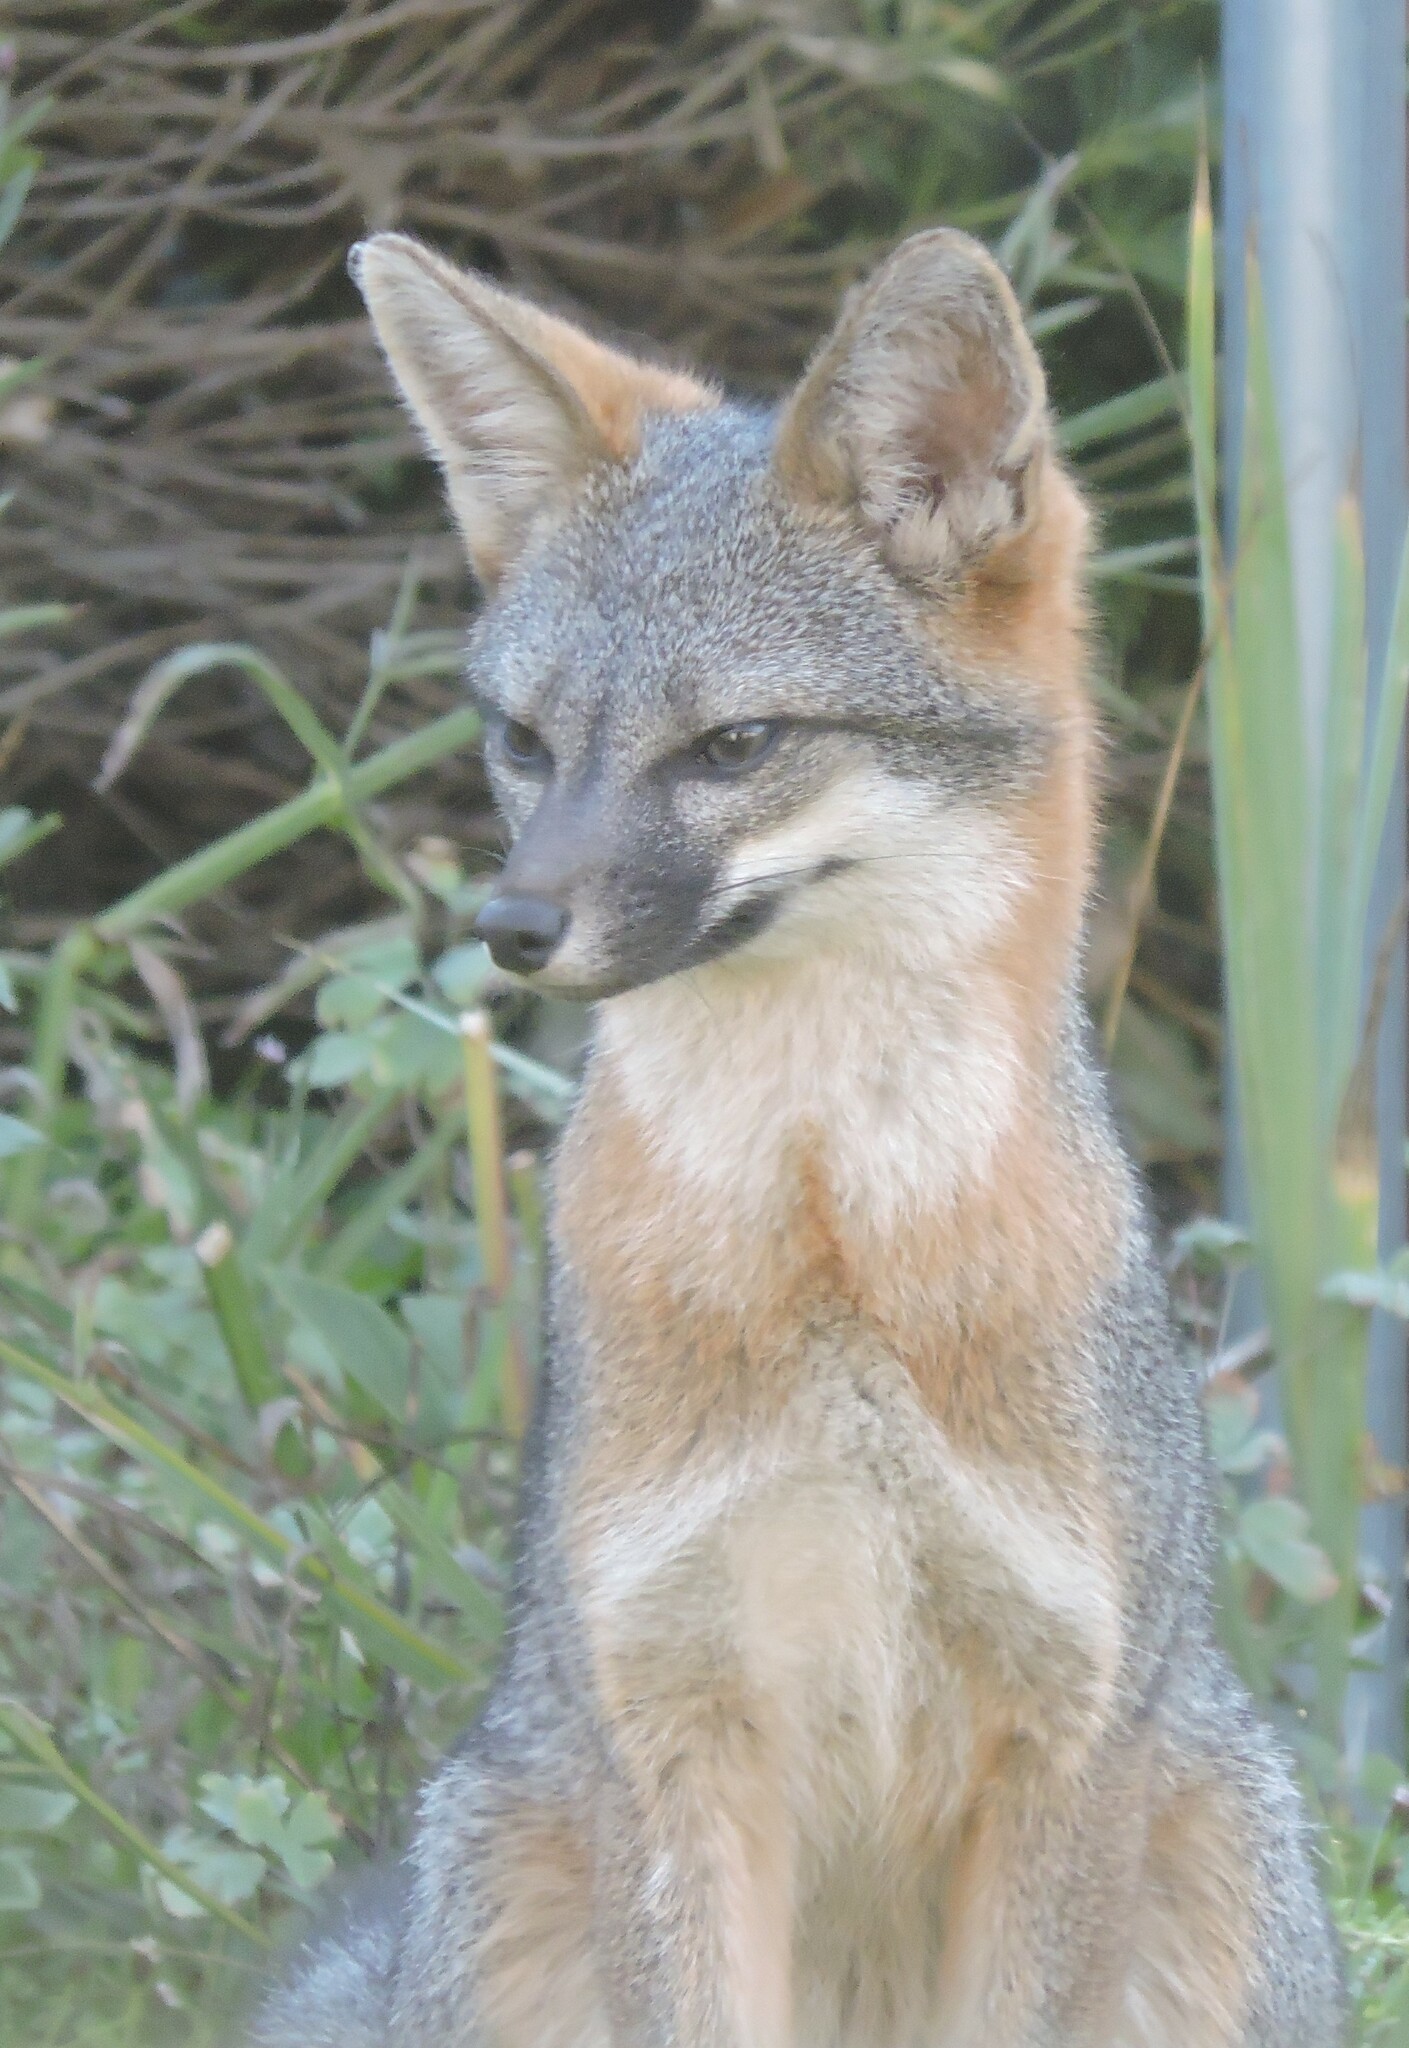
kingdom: Animalia
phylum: Chordata
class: Mammalia
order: Carnivora
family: Canidae
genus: Urocyon
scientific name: Urocyon cinereoargenteus
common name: Gray fox
